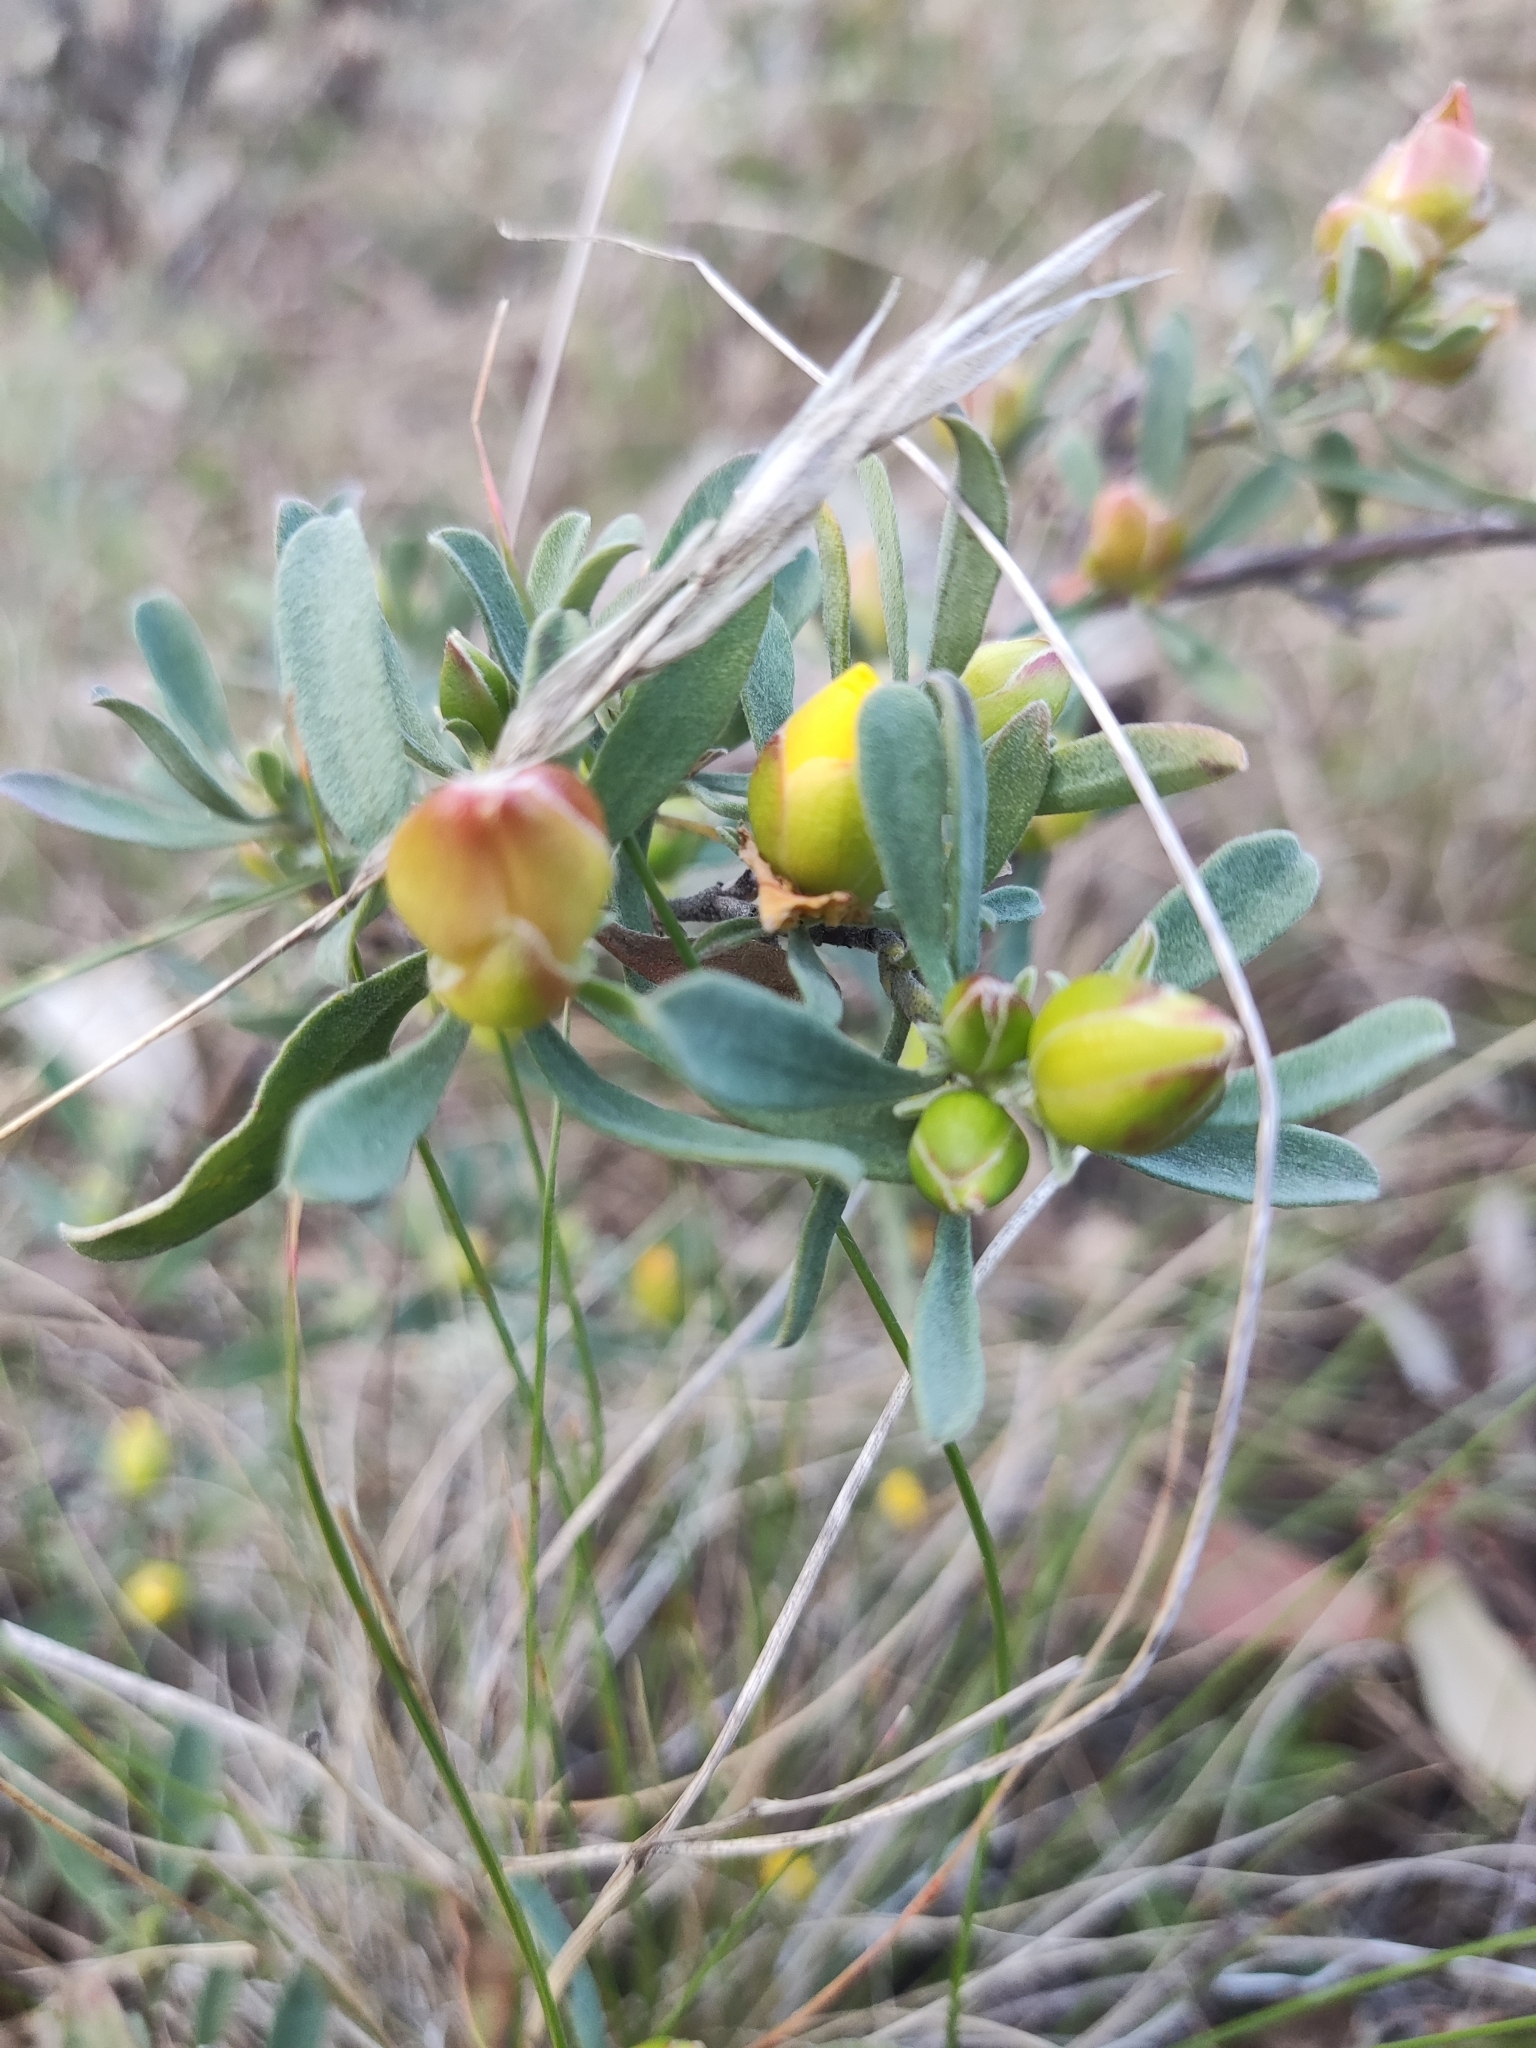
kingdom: Plantae
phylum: Tracheophyta
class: Magnoliopsida
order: Dilleniales
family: Dilleniaceae
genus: Hibbertia
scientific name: Hibbertia obtusifolia
